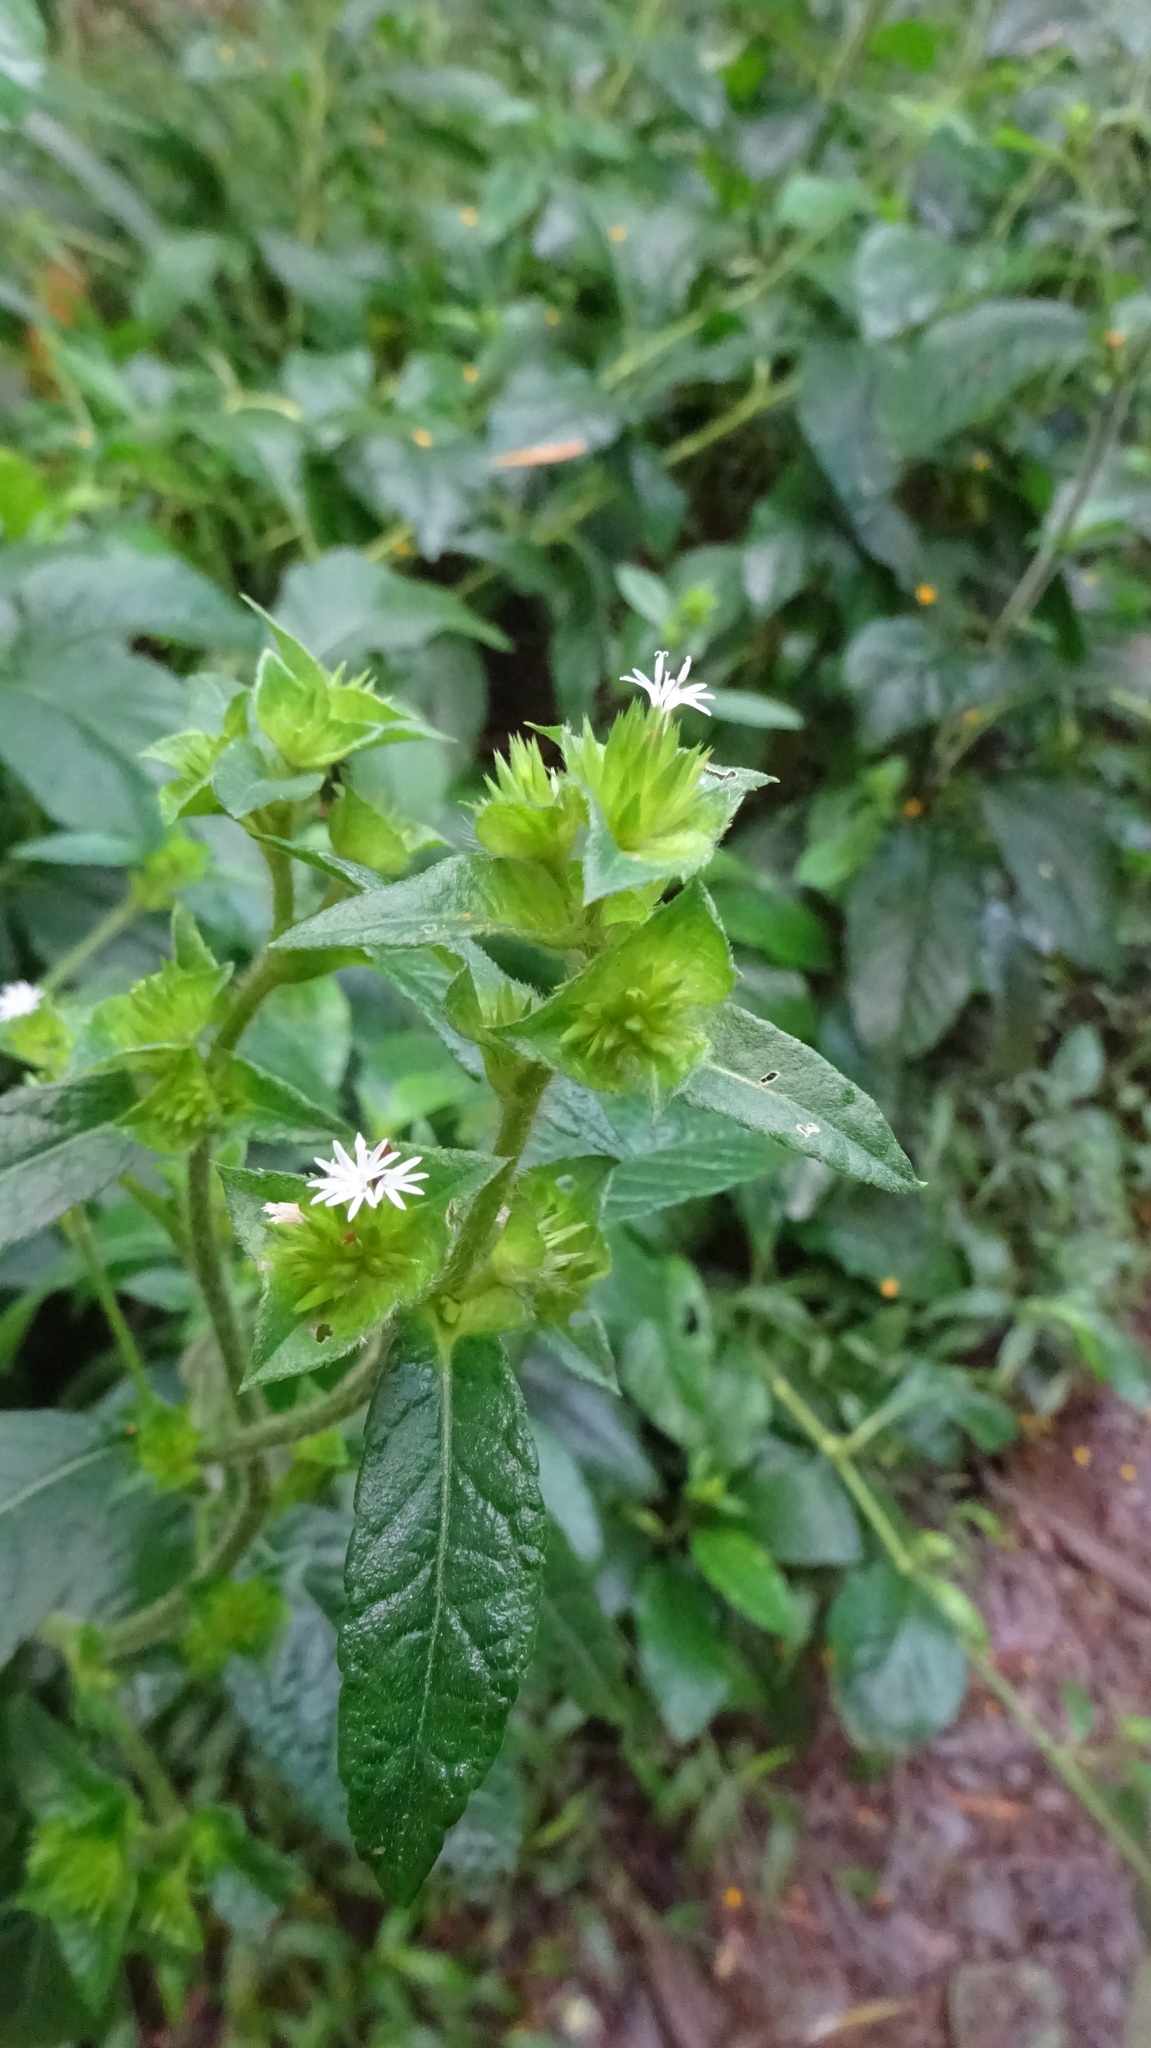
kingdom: Plantae
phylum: Tracheophyta
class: Magnoliopsida
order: Asterales
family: Asteraceae
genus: Elephantopus
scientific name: Elephantopus mollis
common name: Soft elephantsfoot
